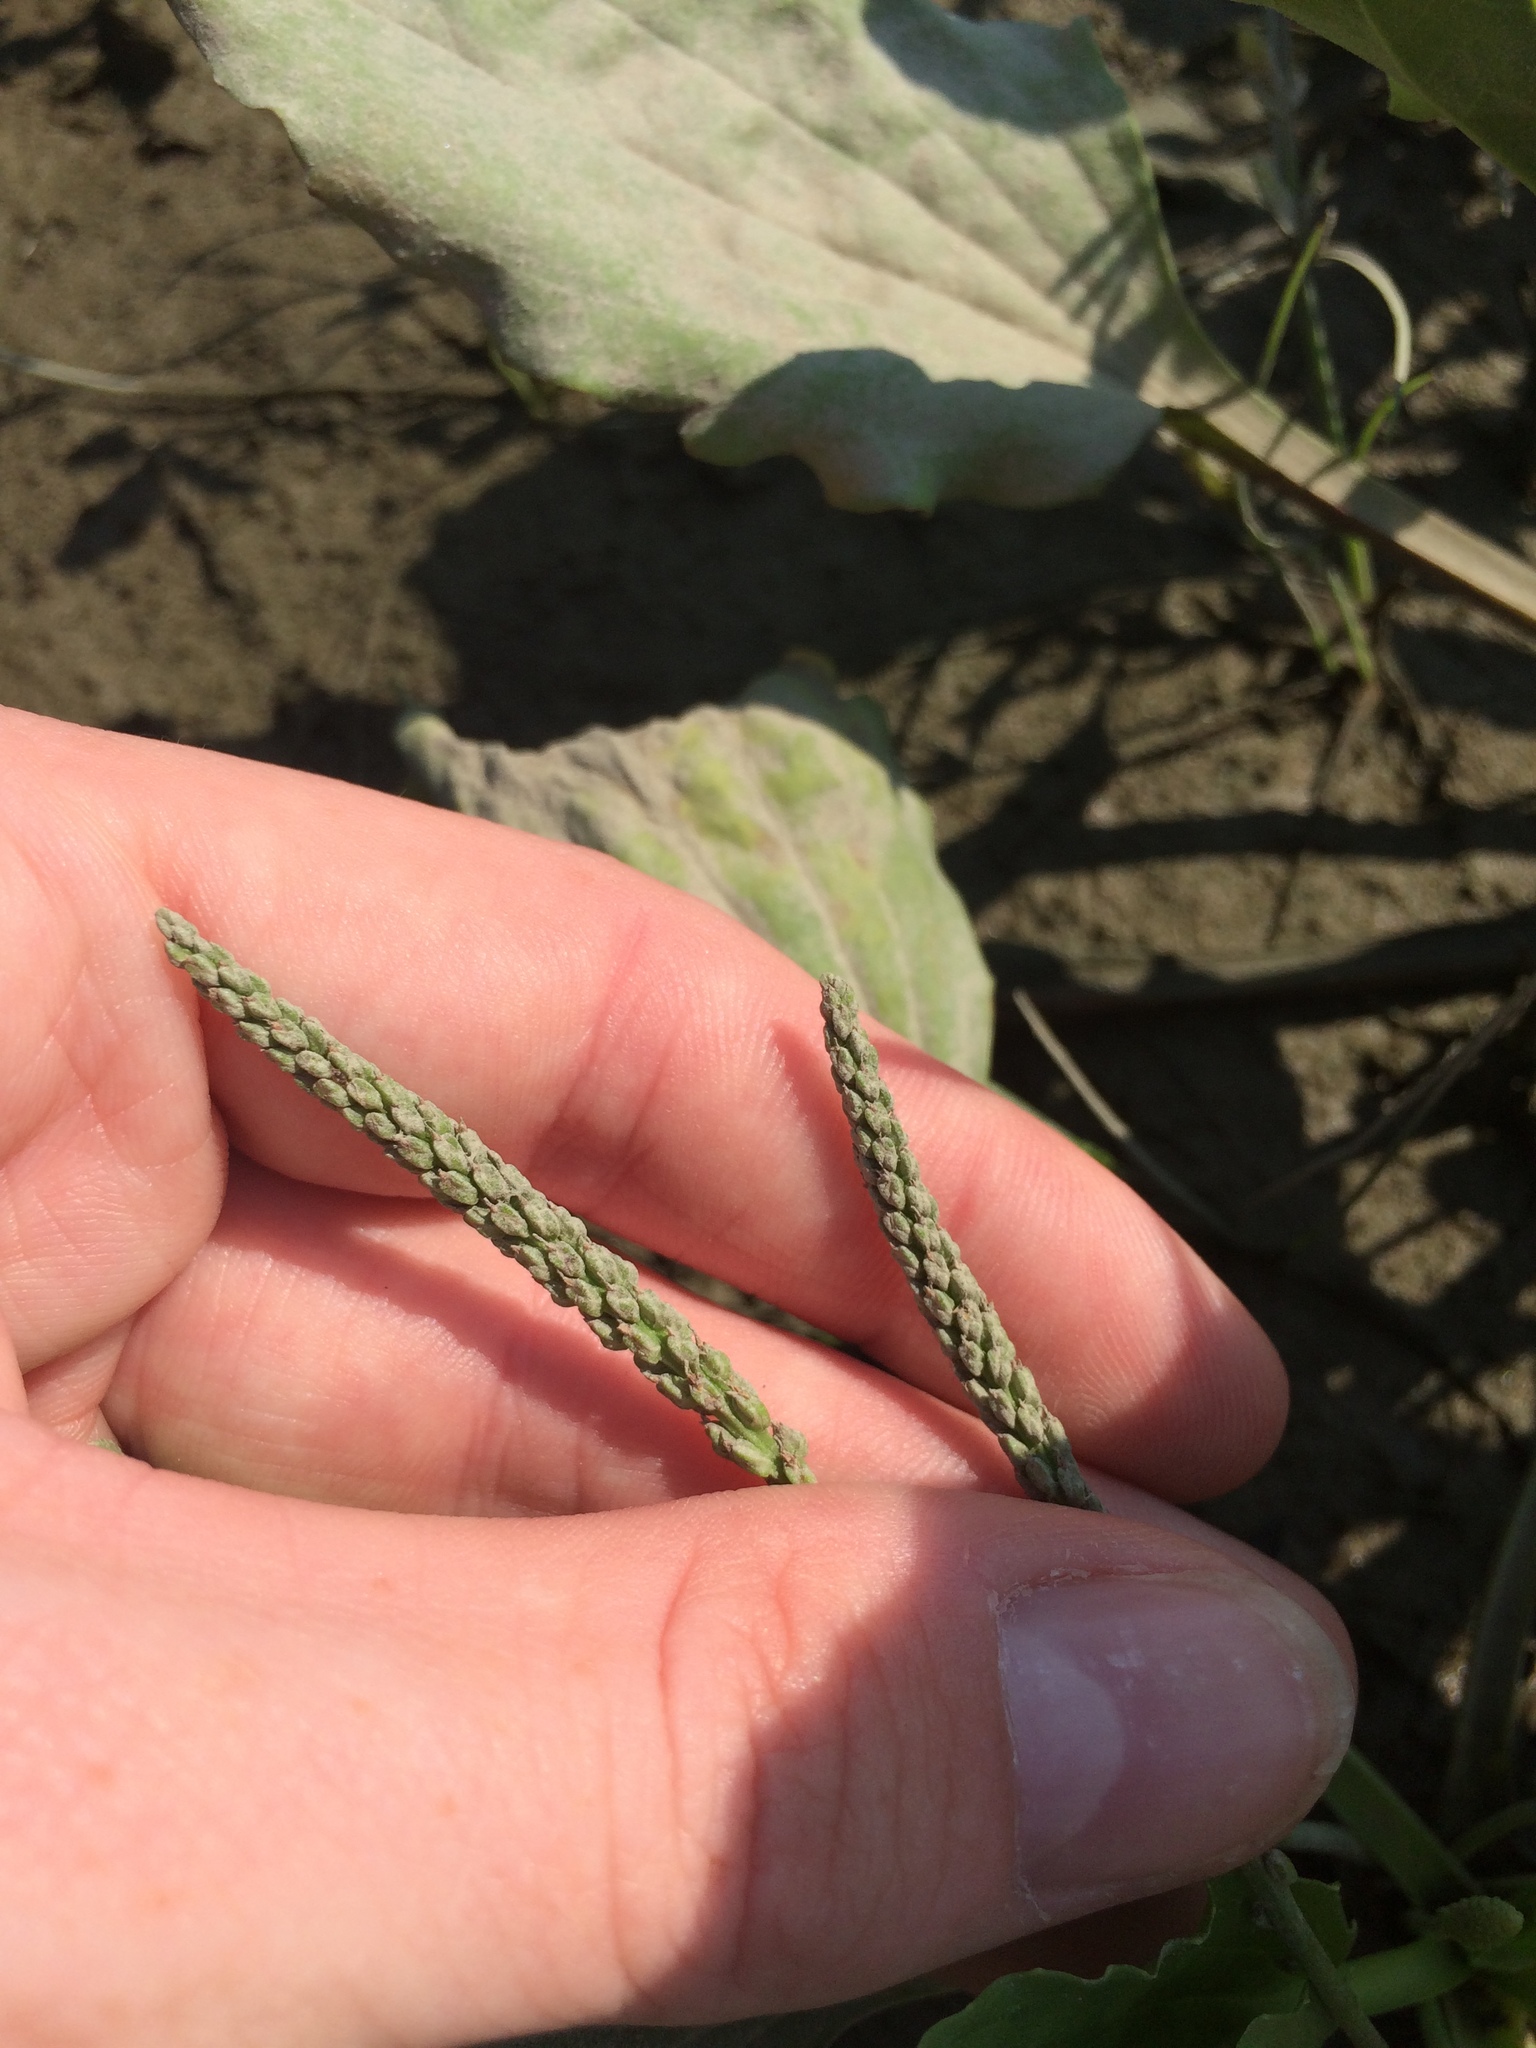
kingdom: Plantae
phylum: Tracheophyta
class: Magnoliopsida
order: Lamiales
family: Plantaginaceae
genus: Plantago
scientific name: Plantago major
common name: Common plantain
